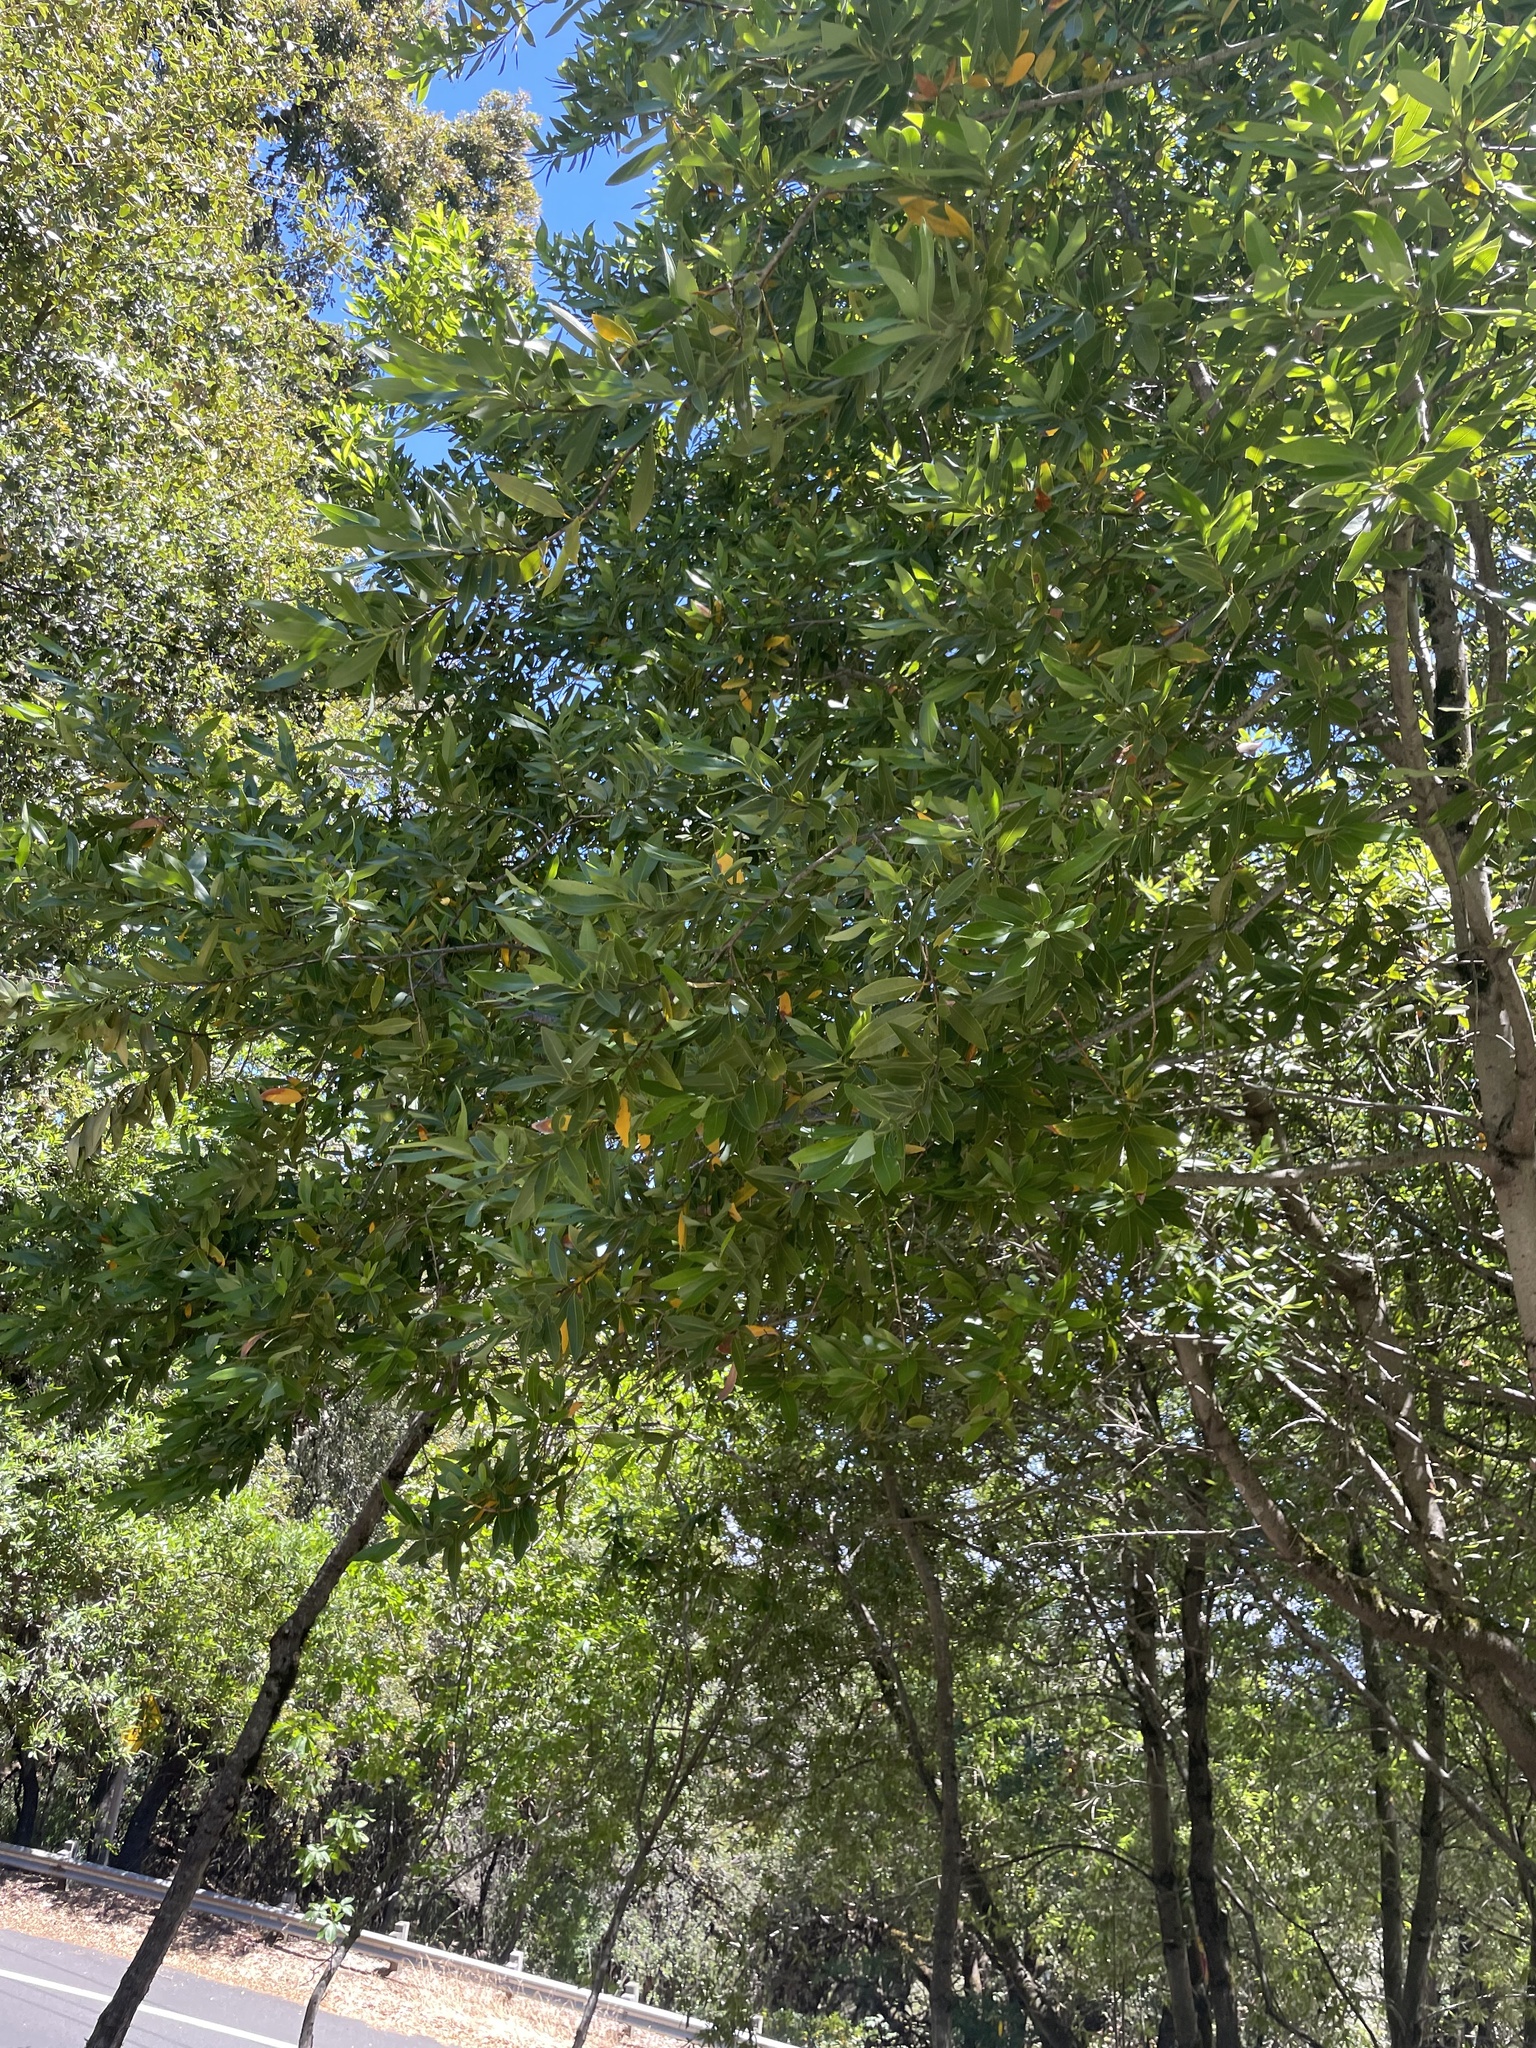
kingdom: Plantae
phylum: Tracheophyta
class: Magnoliopsida
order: Laurales
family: Lauraceae
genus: Umbellularia
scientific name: Umbellularia californica
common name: California bay
